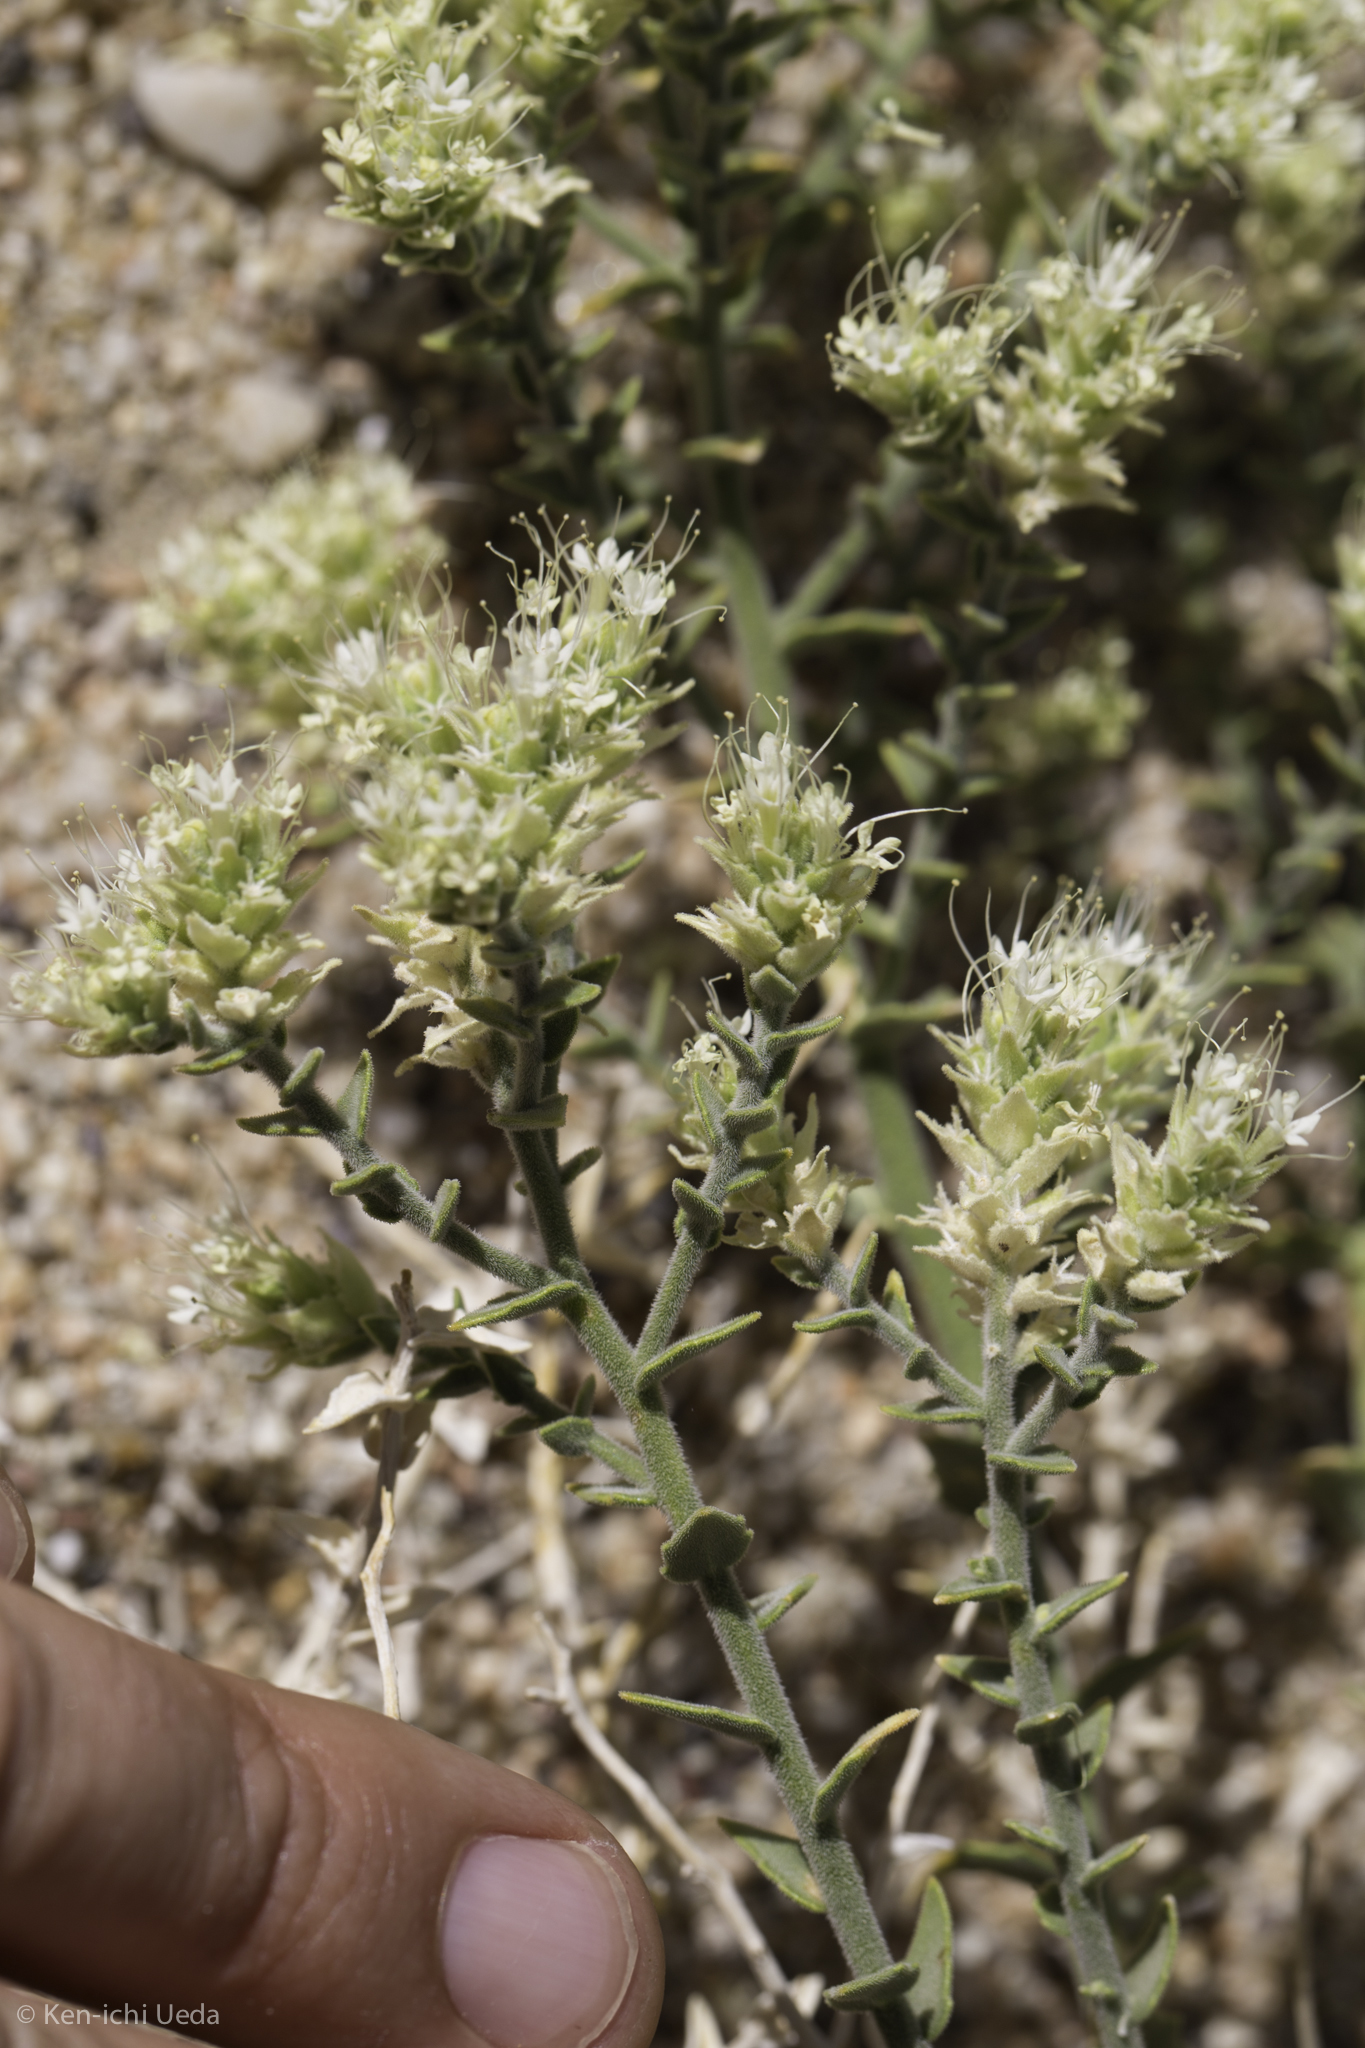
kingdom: Plantae
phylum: Tracheophyta
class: Magnoliopsida
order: Cornales
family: Loasaceae
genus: Petalonyx
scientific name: Petalonyx thurberi
